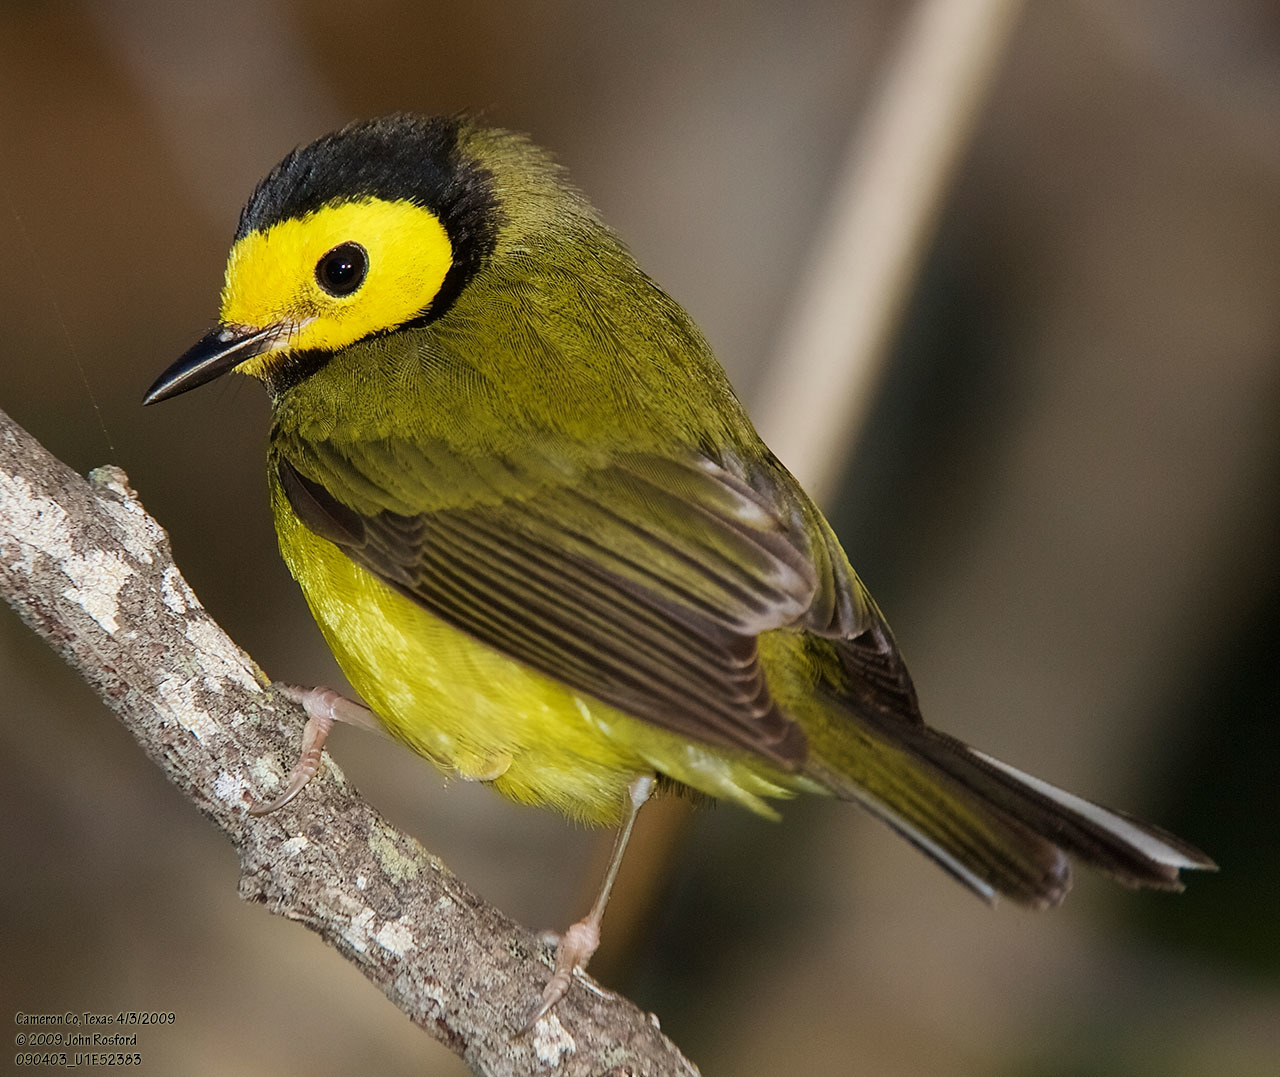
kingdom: Animalia
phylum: Chordata
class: Aves
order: Passeriformes
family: Parulidae
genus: Setophaga
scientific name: Setophaga citrina
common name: Hooded warbler
